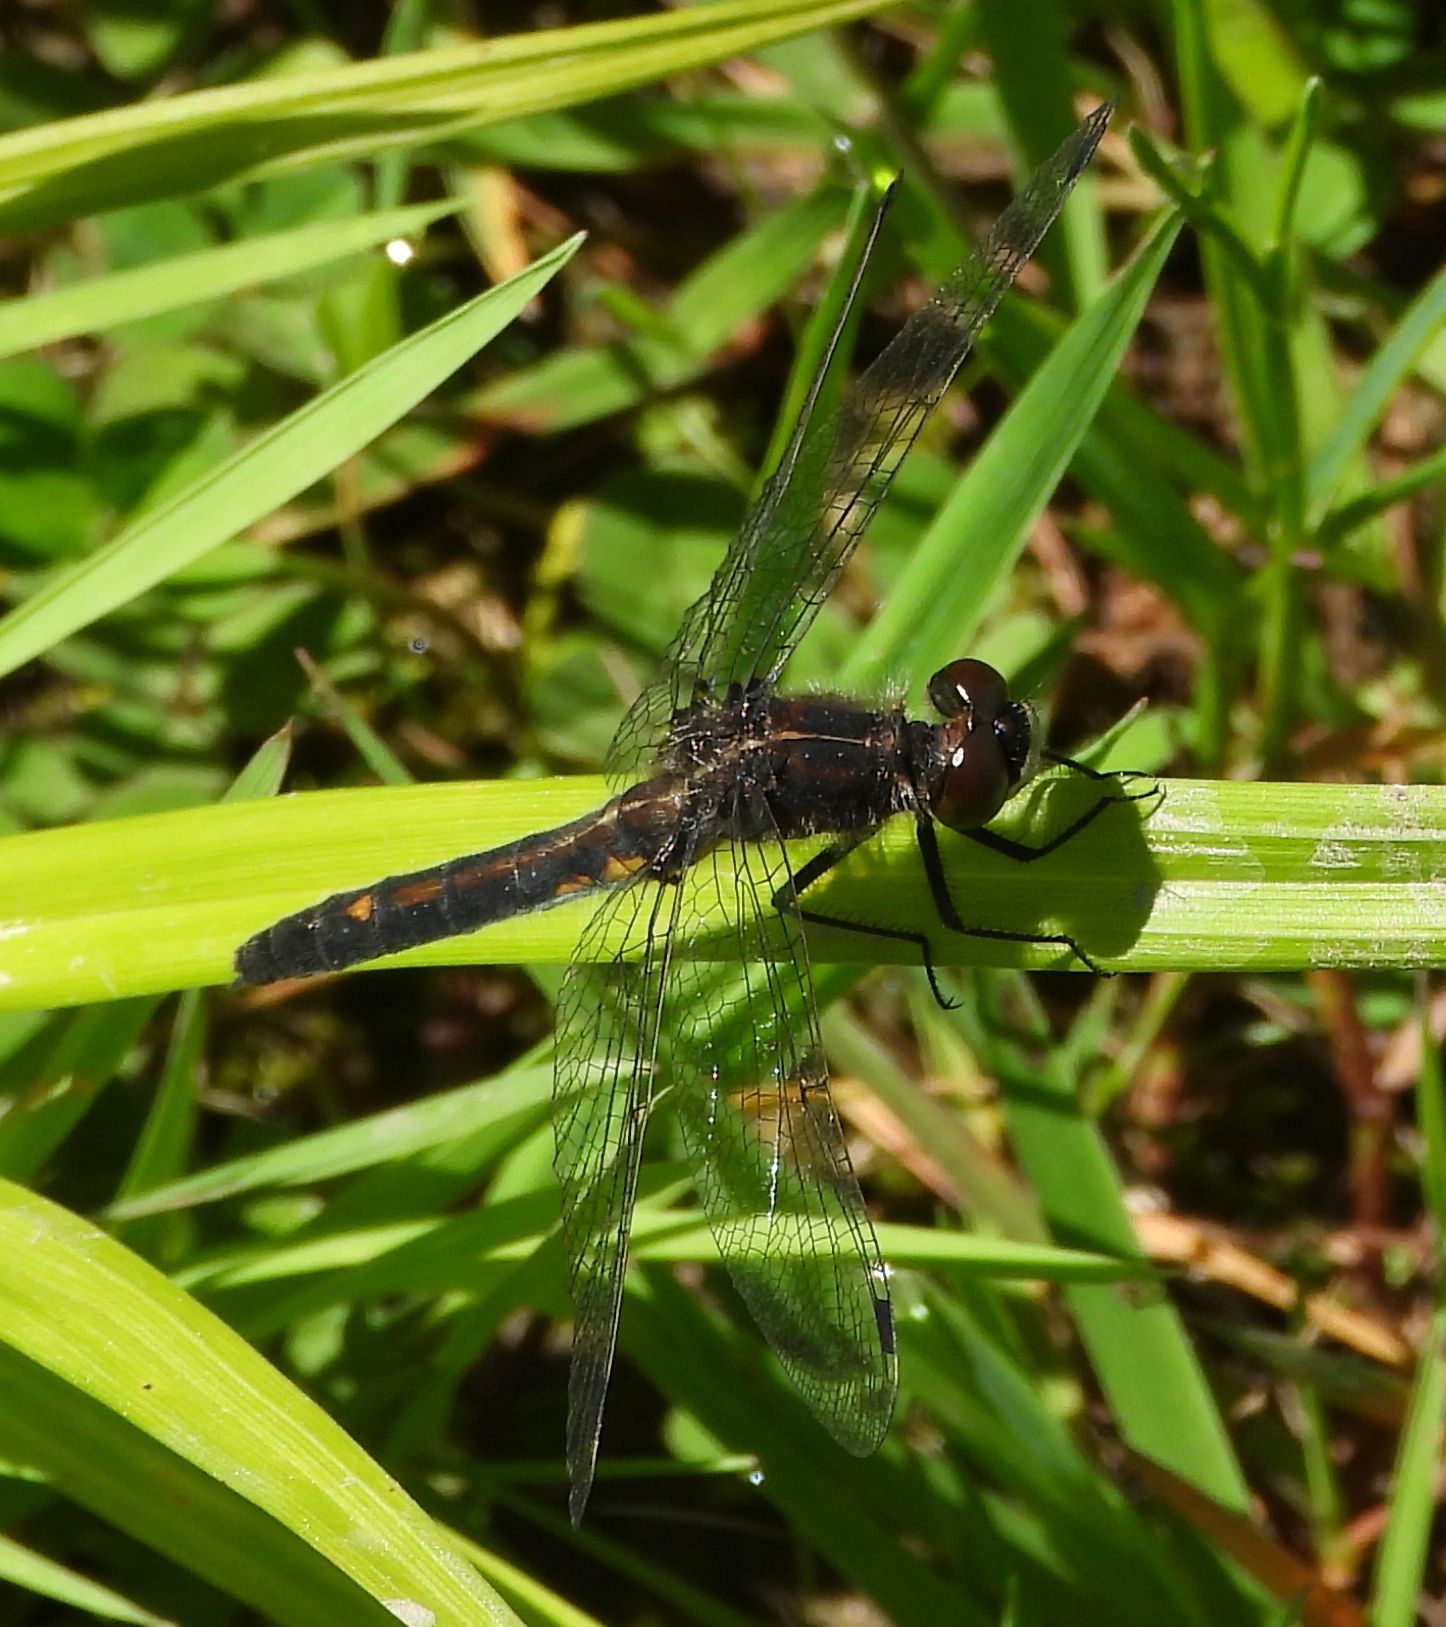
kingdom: Animalia
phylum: Arthropoda
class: Insecta
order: Odonata
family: Libellulidae
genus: Leucorrhinia
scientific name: Leucorrhinia intacta
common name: Dot-tailed whiteface
